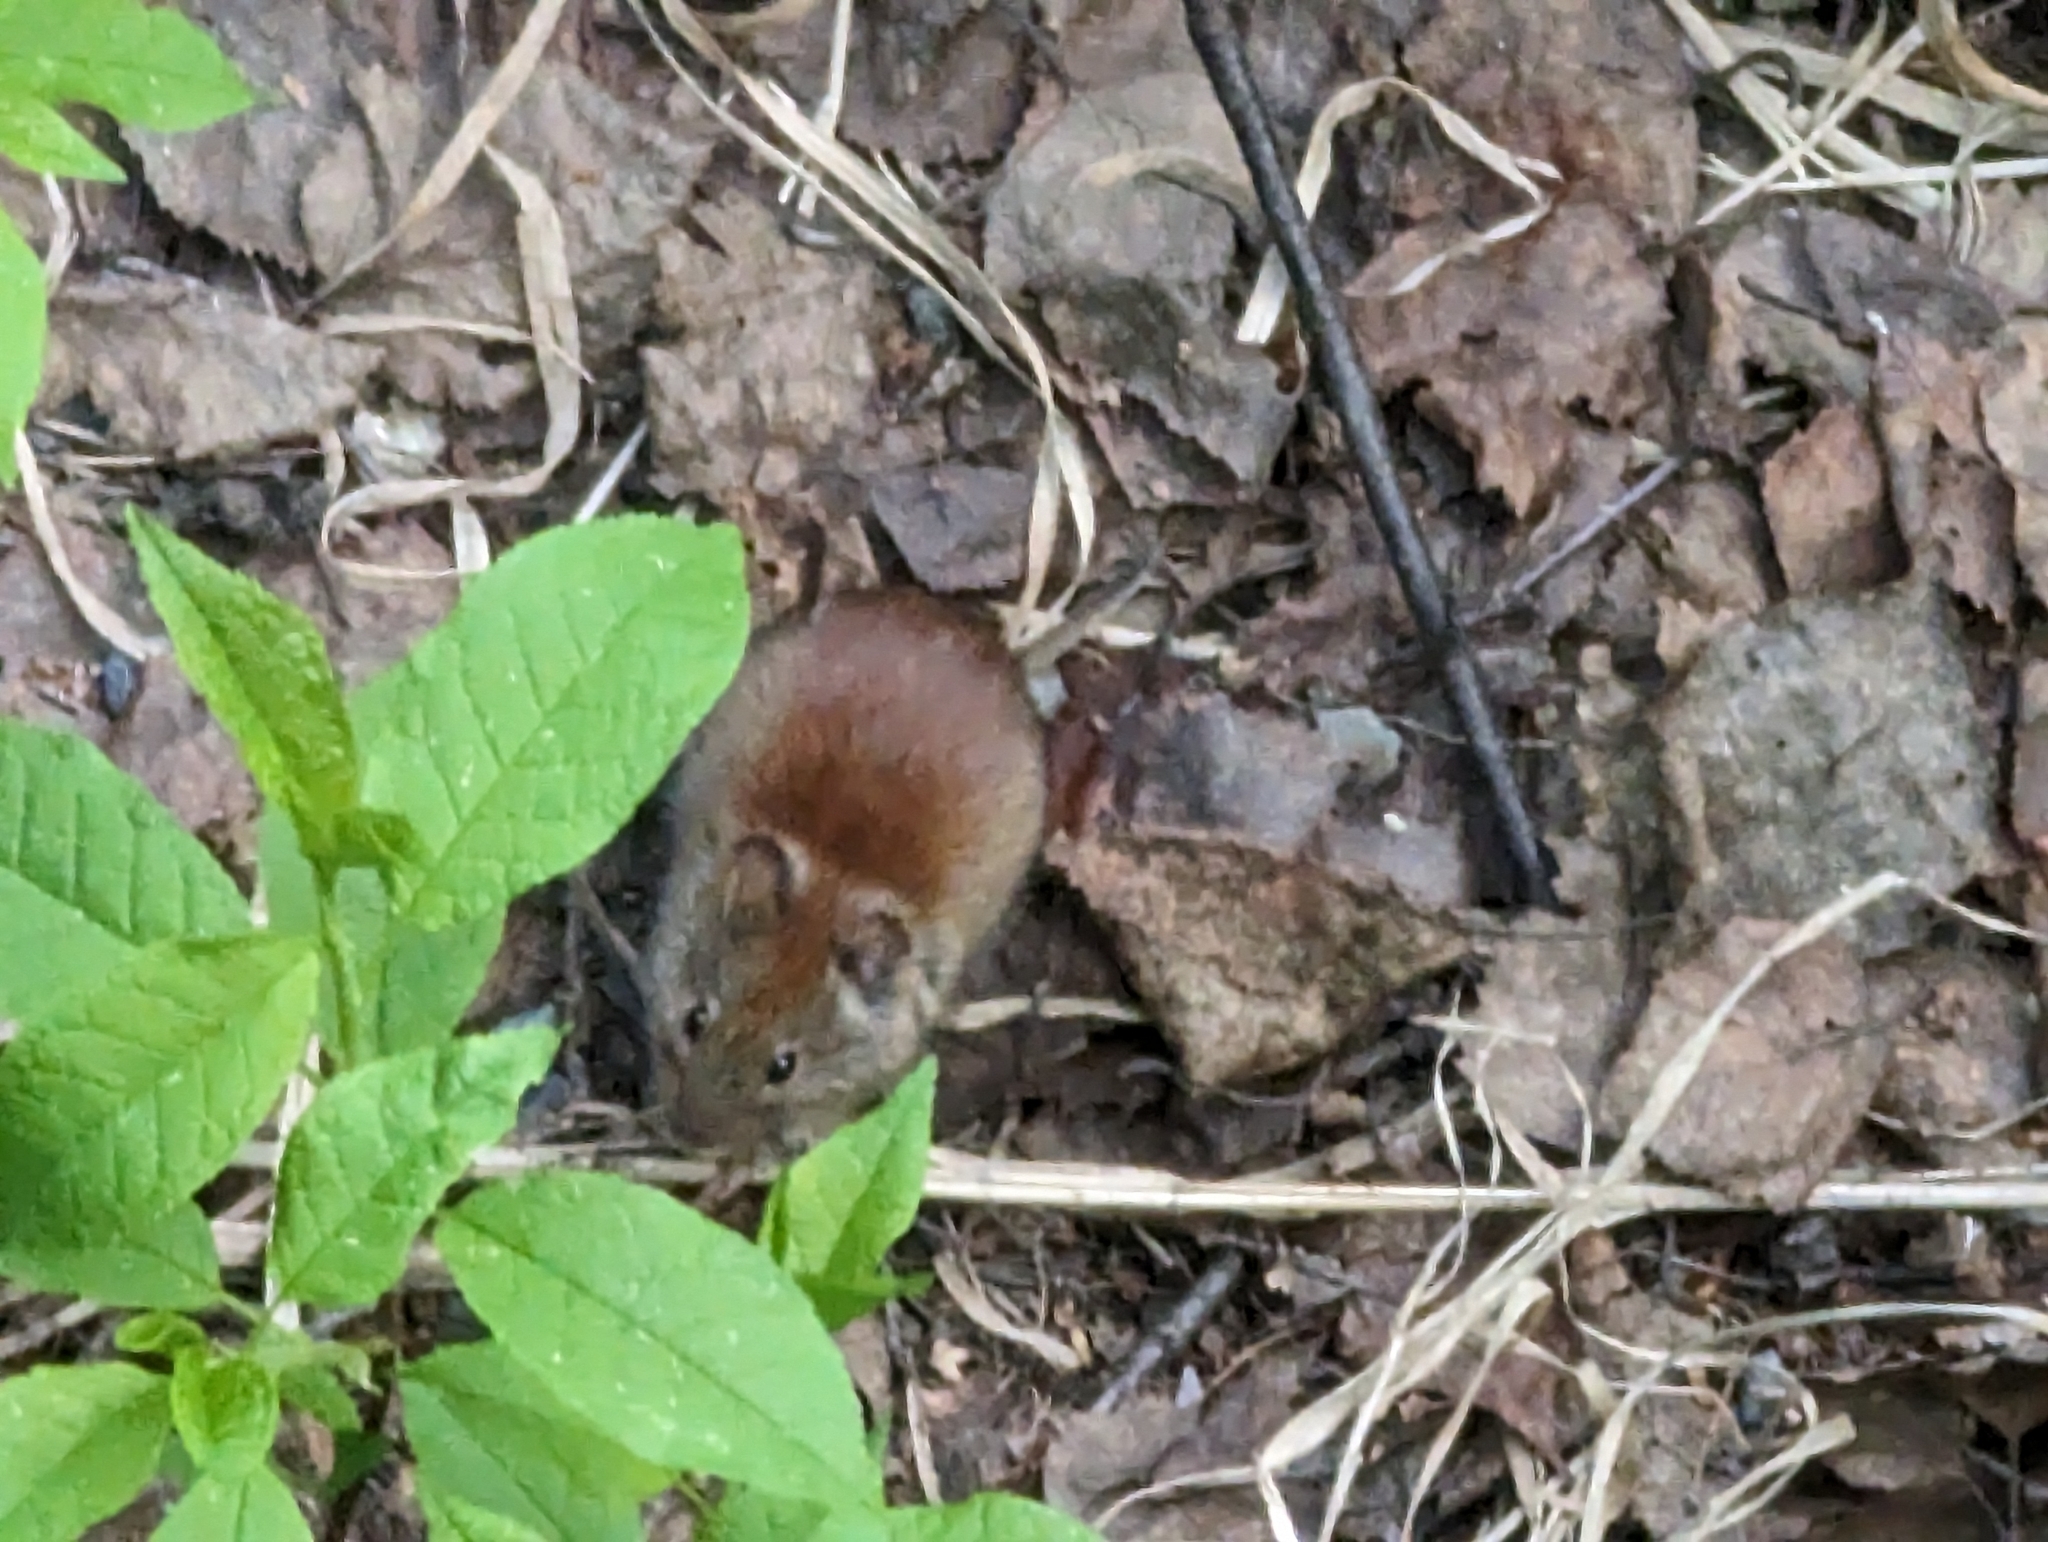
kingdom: Animalia
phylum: Chordata
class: Mammalia
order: Rodentia
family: Cricetidae
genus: Myodes
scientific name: Myodes rutilus
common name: Northern red-backed vole
